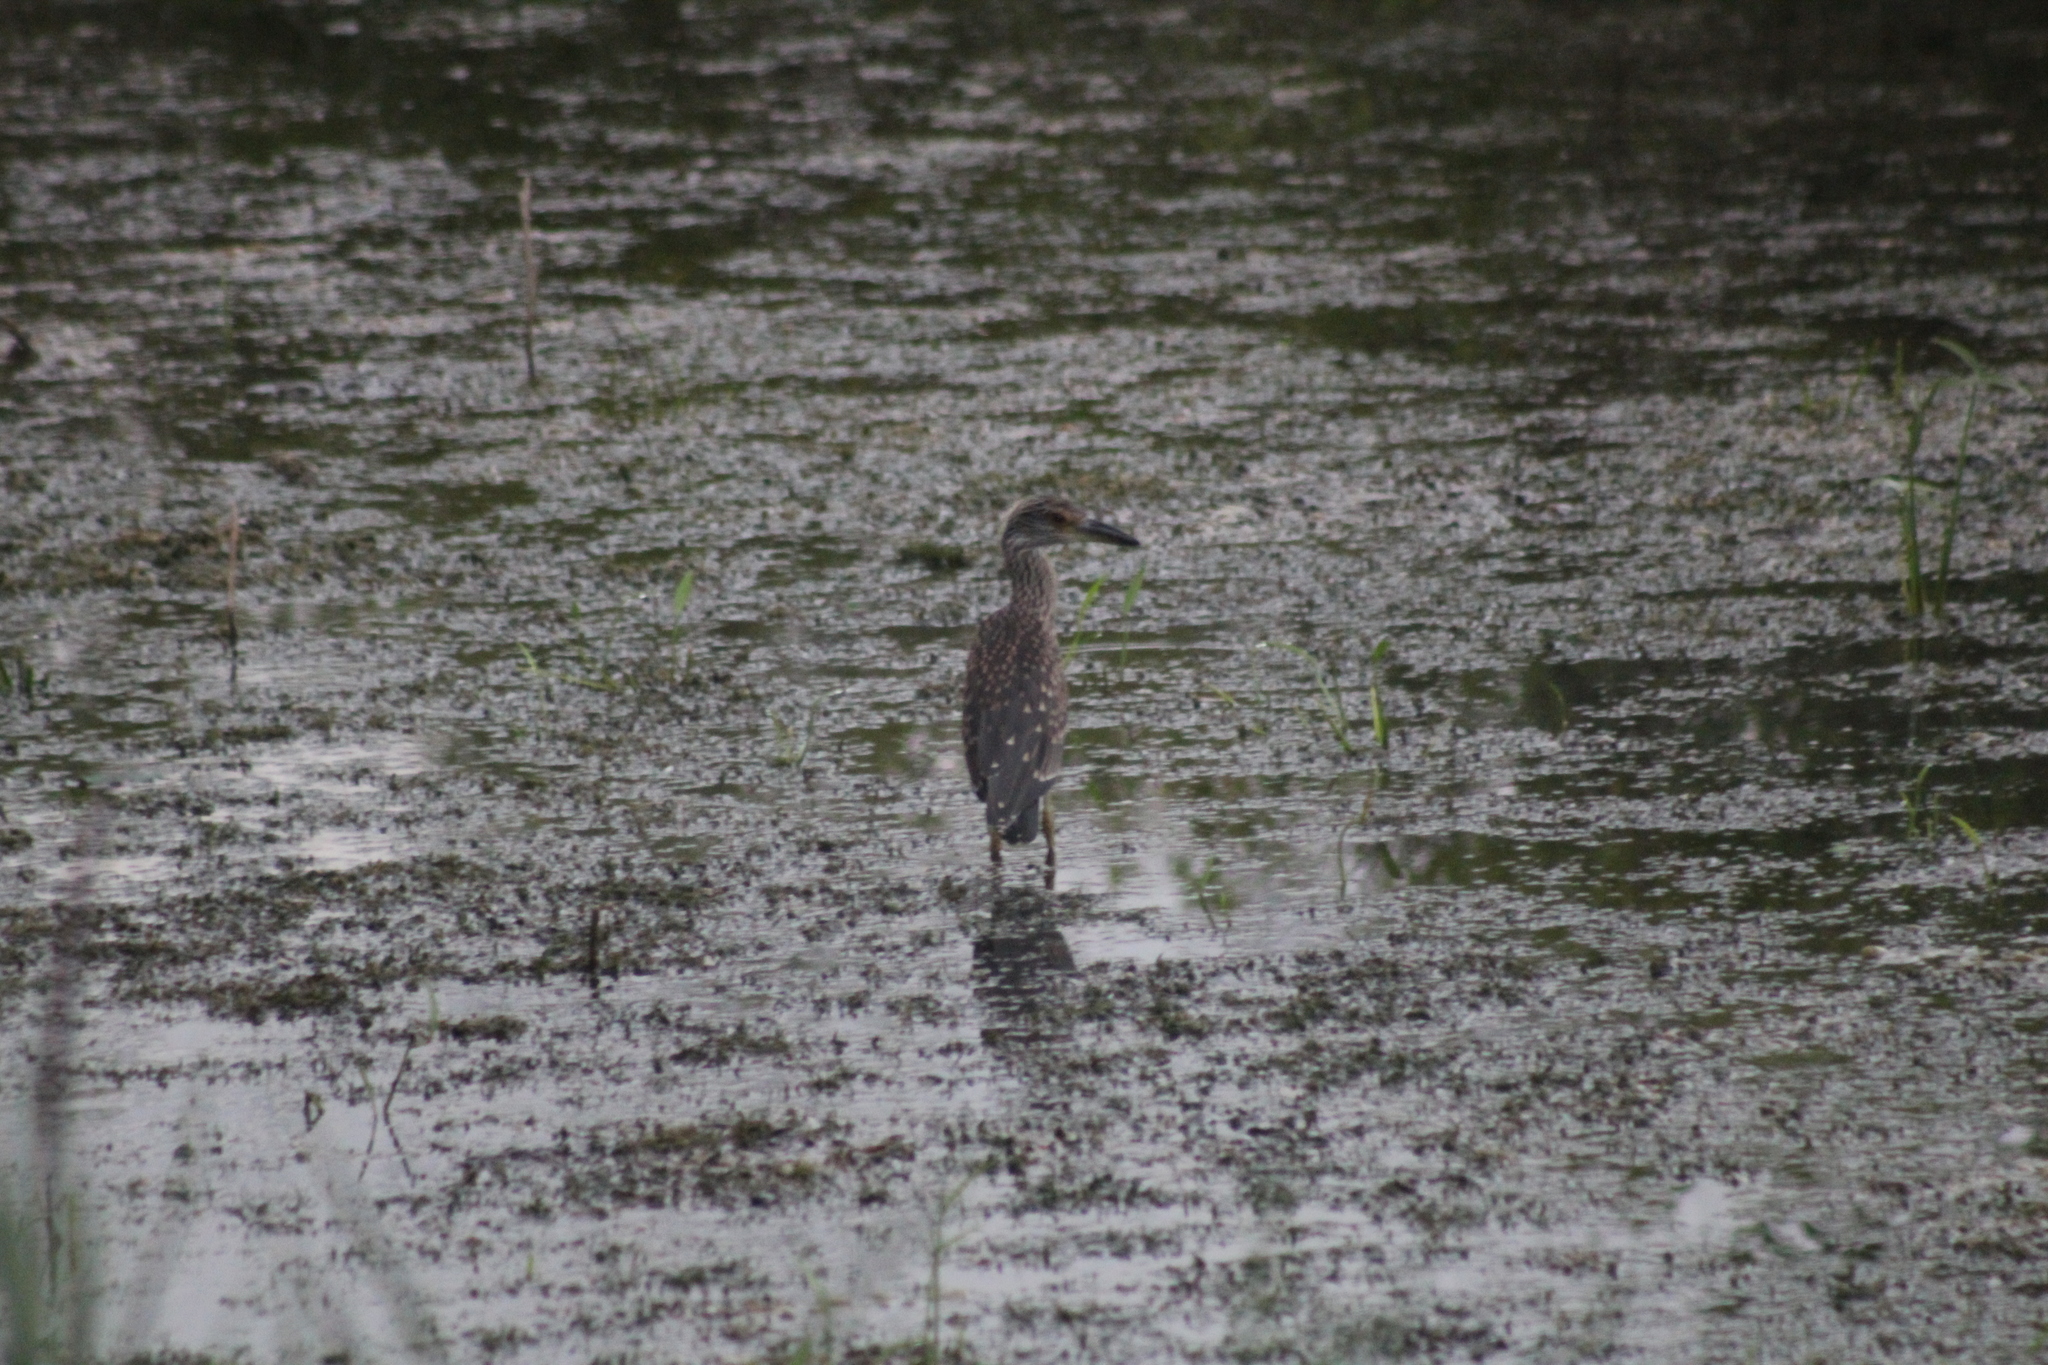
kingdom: Animalia
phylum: Chordata
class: Aves
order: Pelecaniformes
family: Ardeidae
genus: Nyctanassa
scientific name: Nyctanassa violacea
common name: Yellow-crowned night heron
